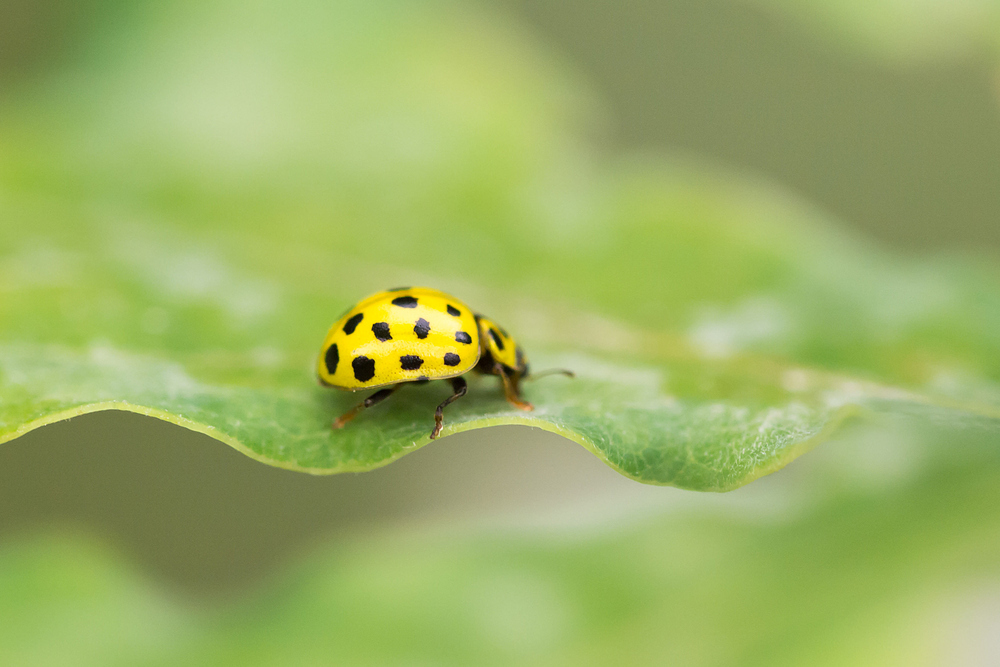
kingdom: Animalia
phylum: Arthropoda
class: Insecta
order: Coleoptera
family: Coccinellidae
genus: Psyllobora
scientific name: Psyllobora vigintiduopunctata
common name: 22-spot ladybird
